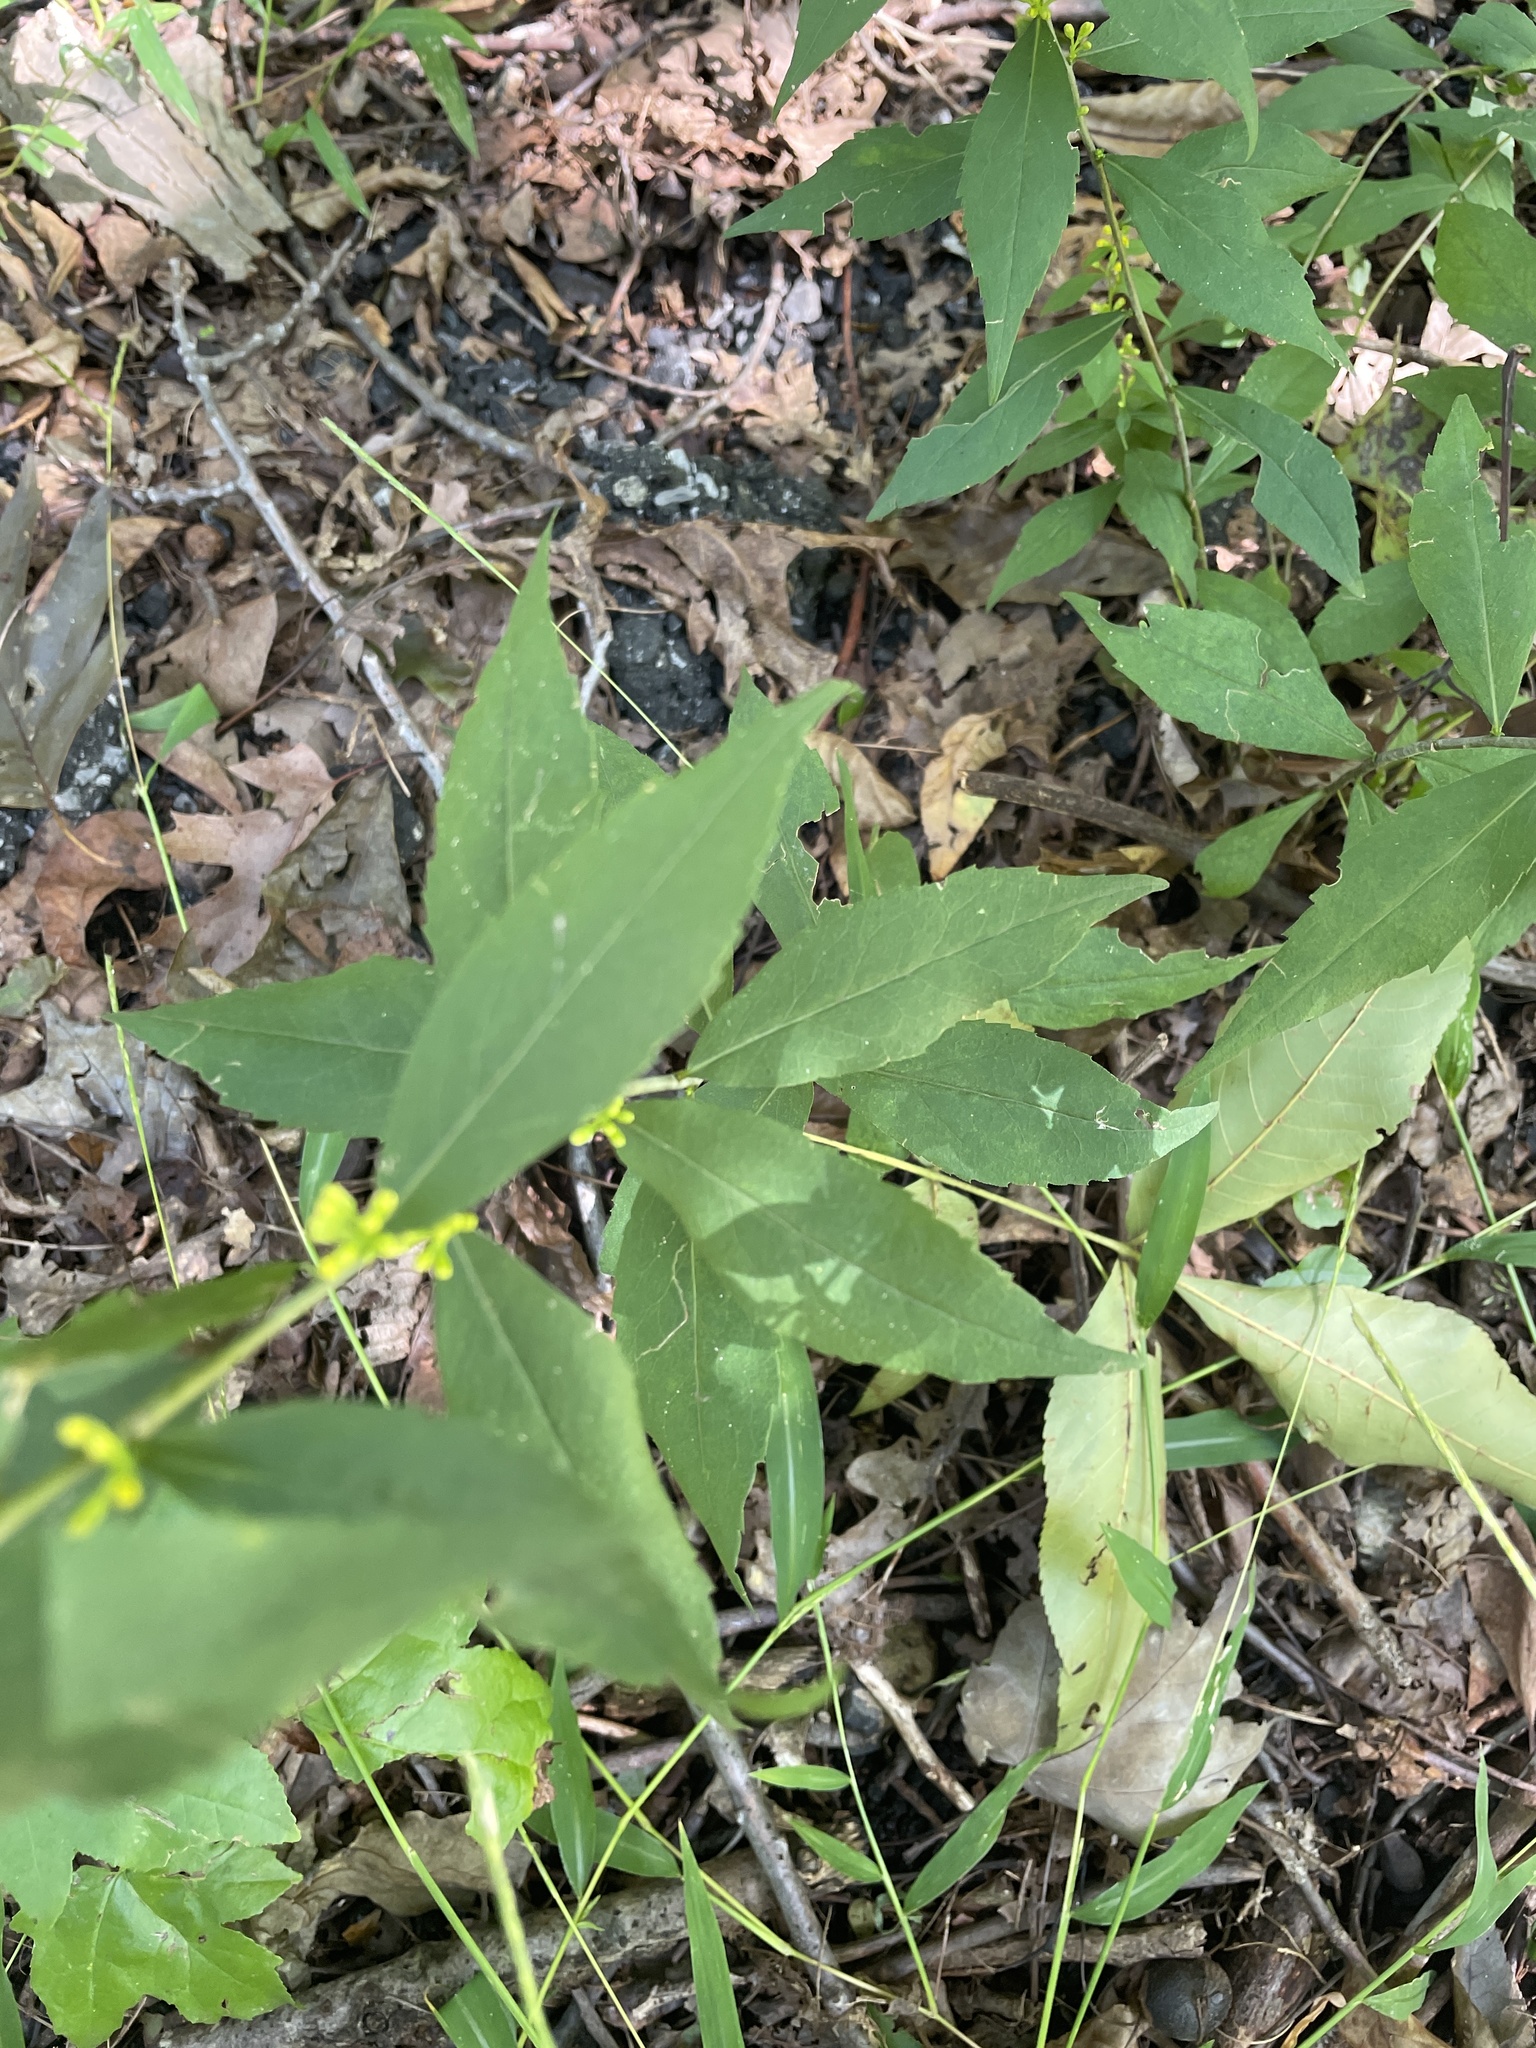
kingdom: Plantae
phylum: Tracheophyta
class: Magnoliopsida
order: Asterales
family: Asteraceae
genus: Solidago
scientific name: Solidago caesia
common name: Woodland goldenrod
